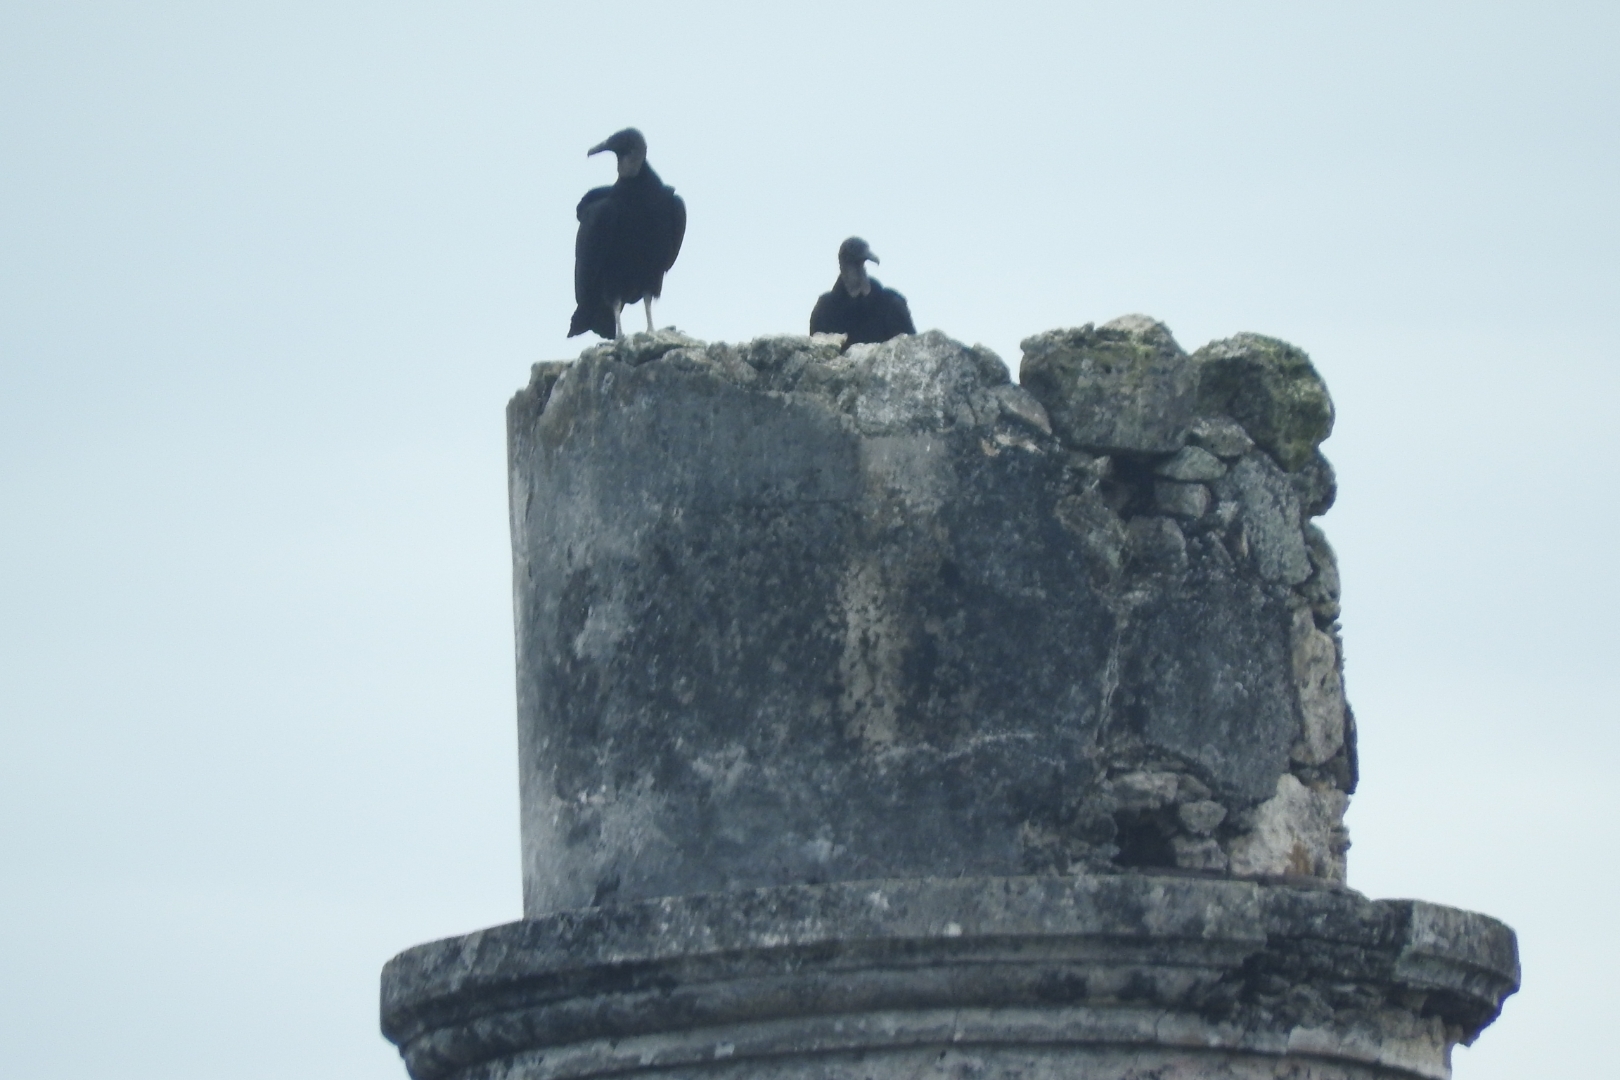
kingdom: Animalia
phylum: Chordata
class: Aves
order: Accipitriformes
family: Cathartidae
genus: Coragyps
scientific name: Coragyps atratus
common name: Black vulture
